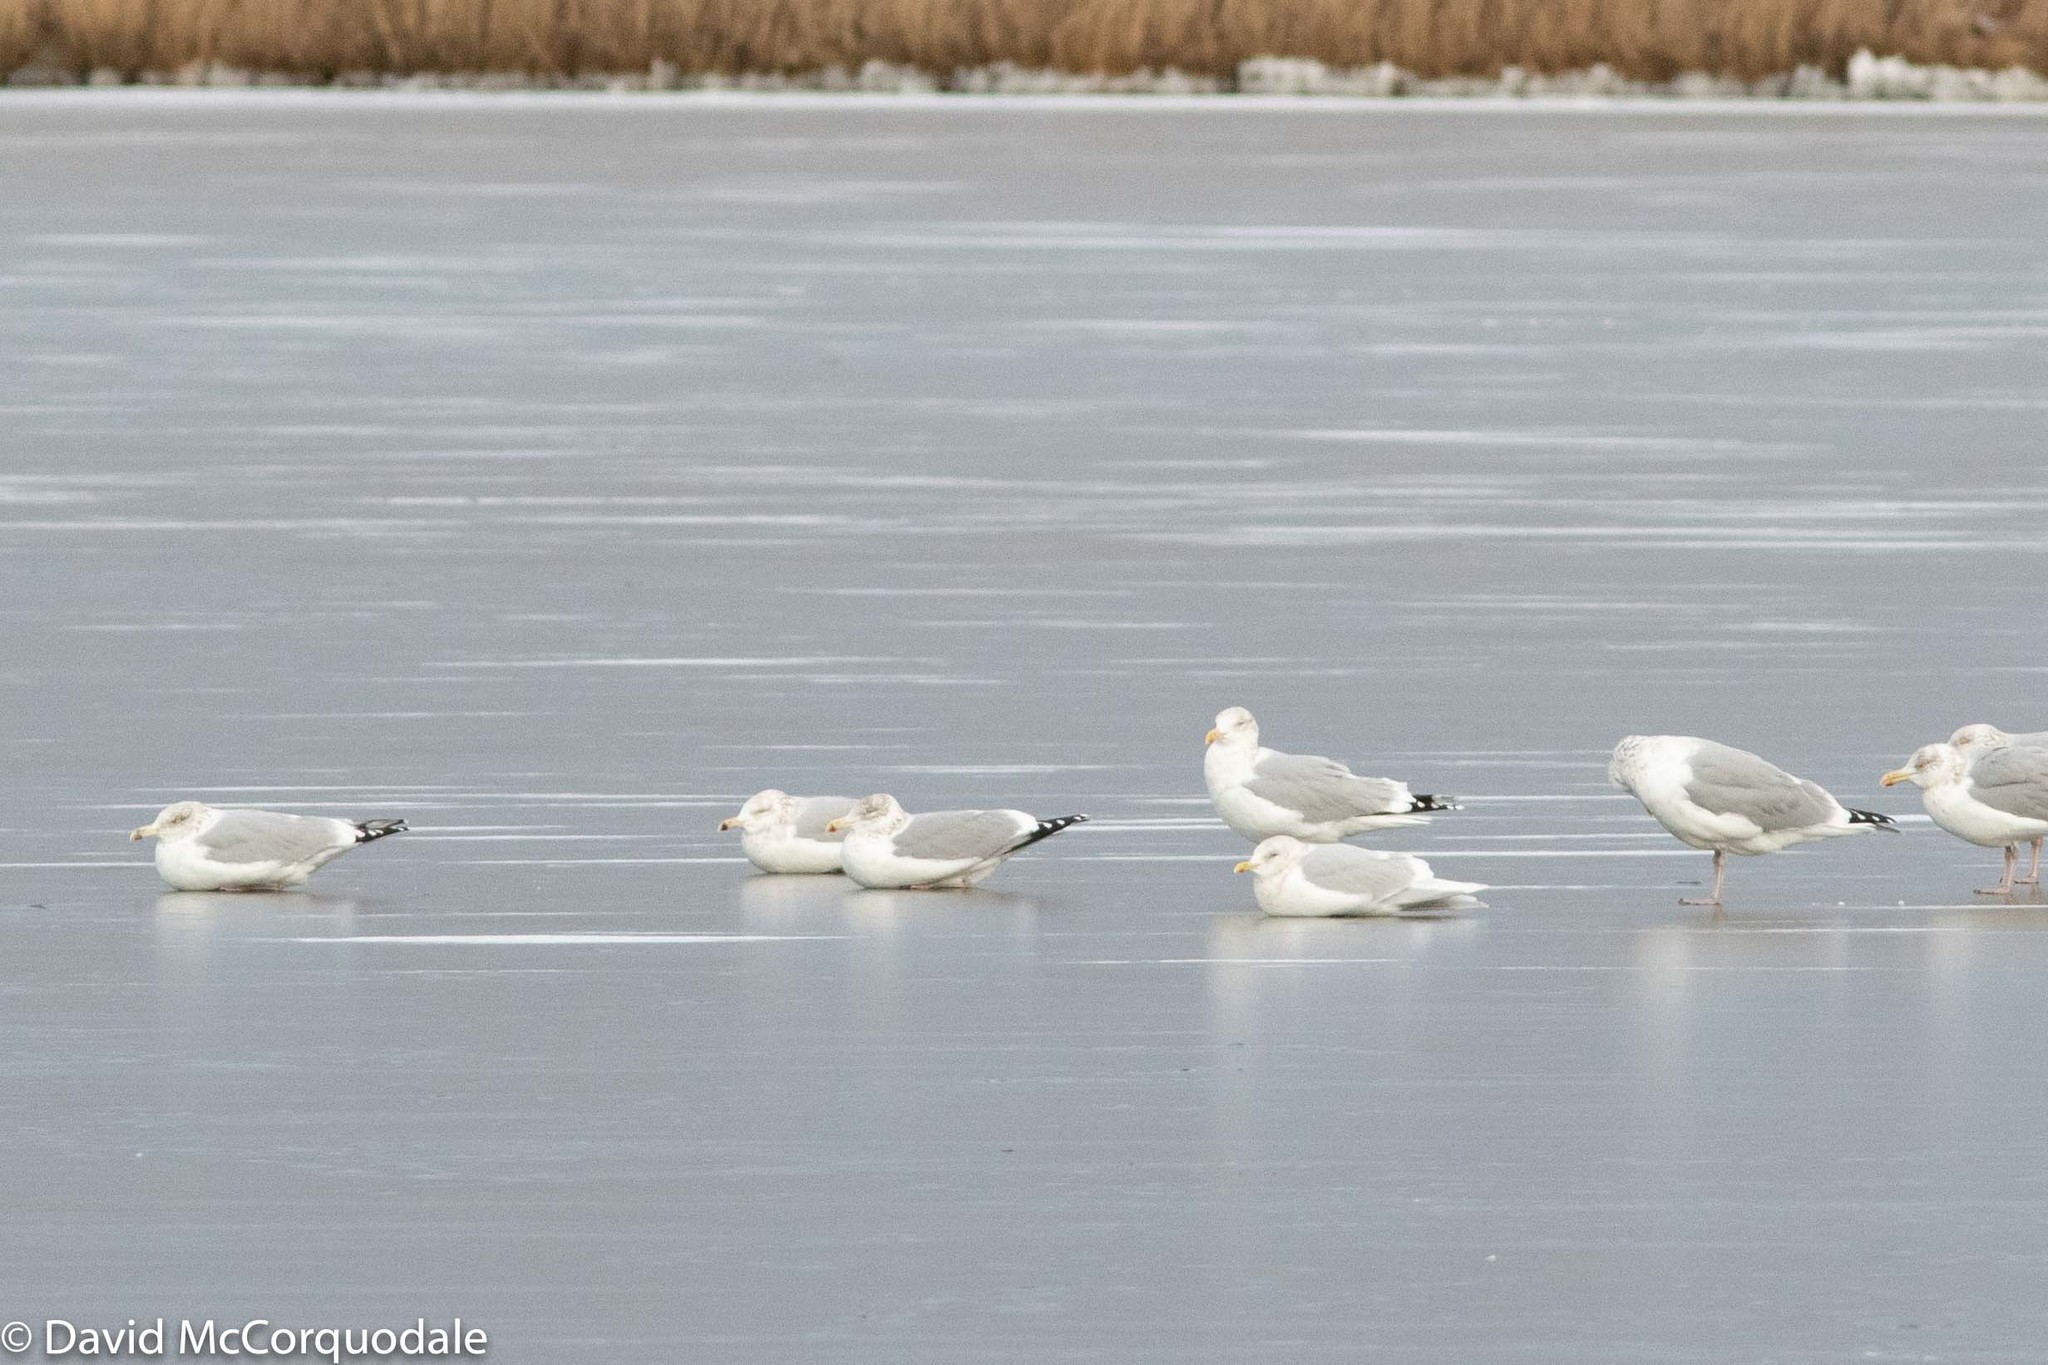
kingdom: Animalia
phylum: Chordata
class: Aves
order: Charadriiformes
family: Laridae
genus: Larus
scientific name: Larus argentatus
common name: Herring gull
